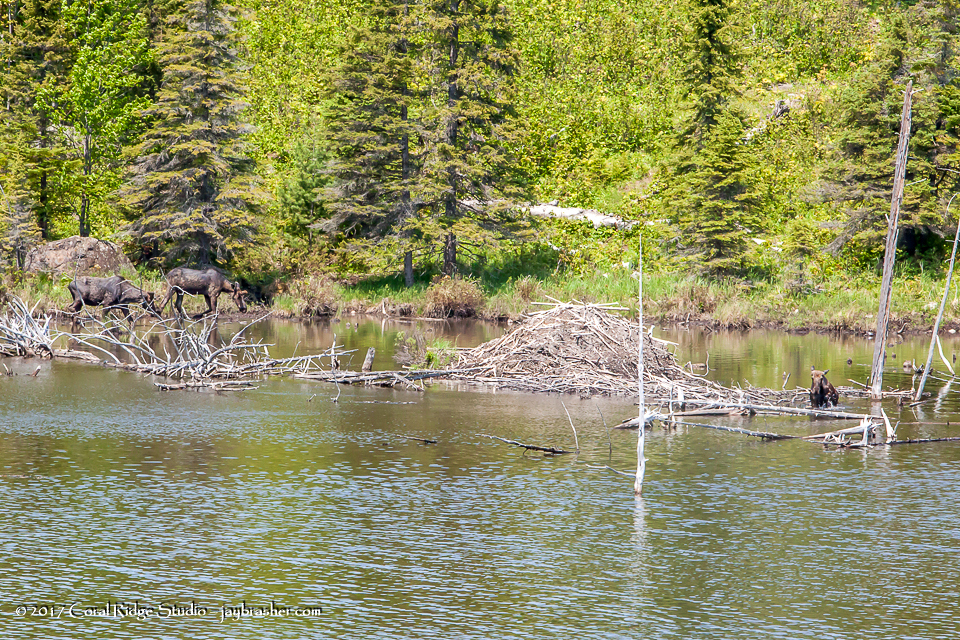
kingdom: Animalia
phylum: Chordata
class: Mammalia
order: Artiodactyla
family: Cervidae
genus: Alces
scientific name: Alces alces
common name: Moose
